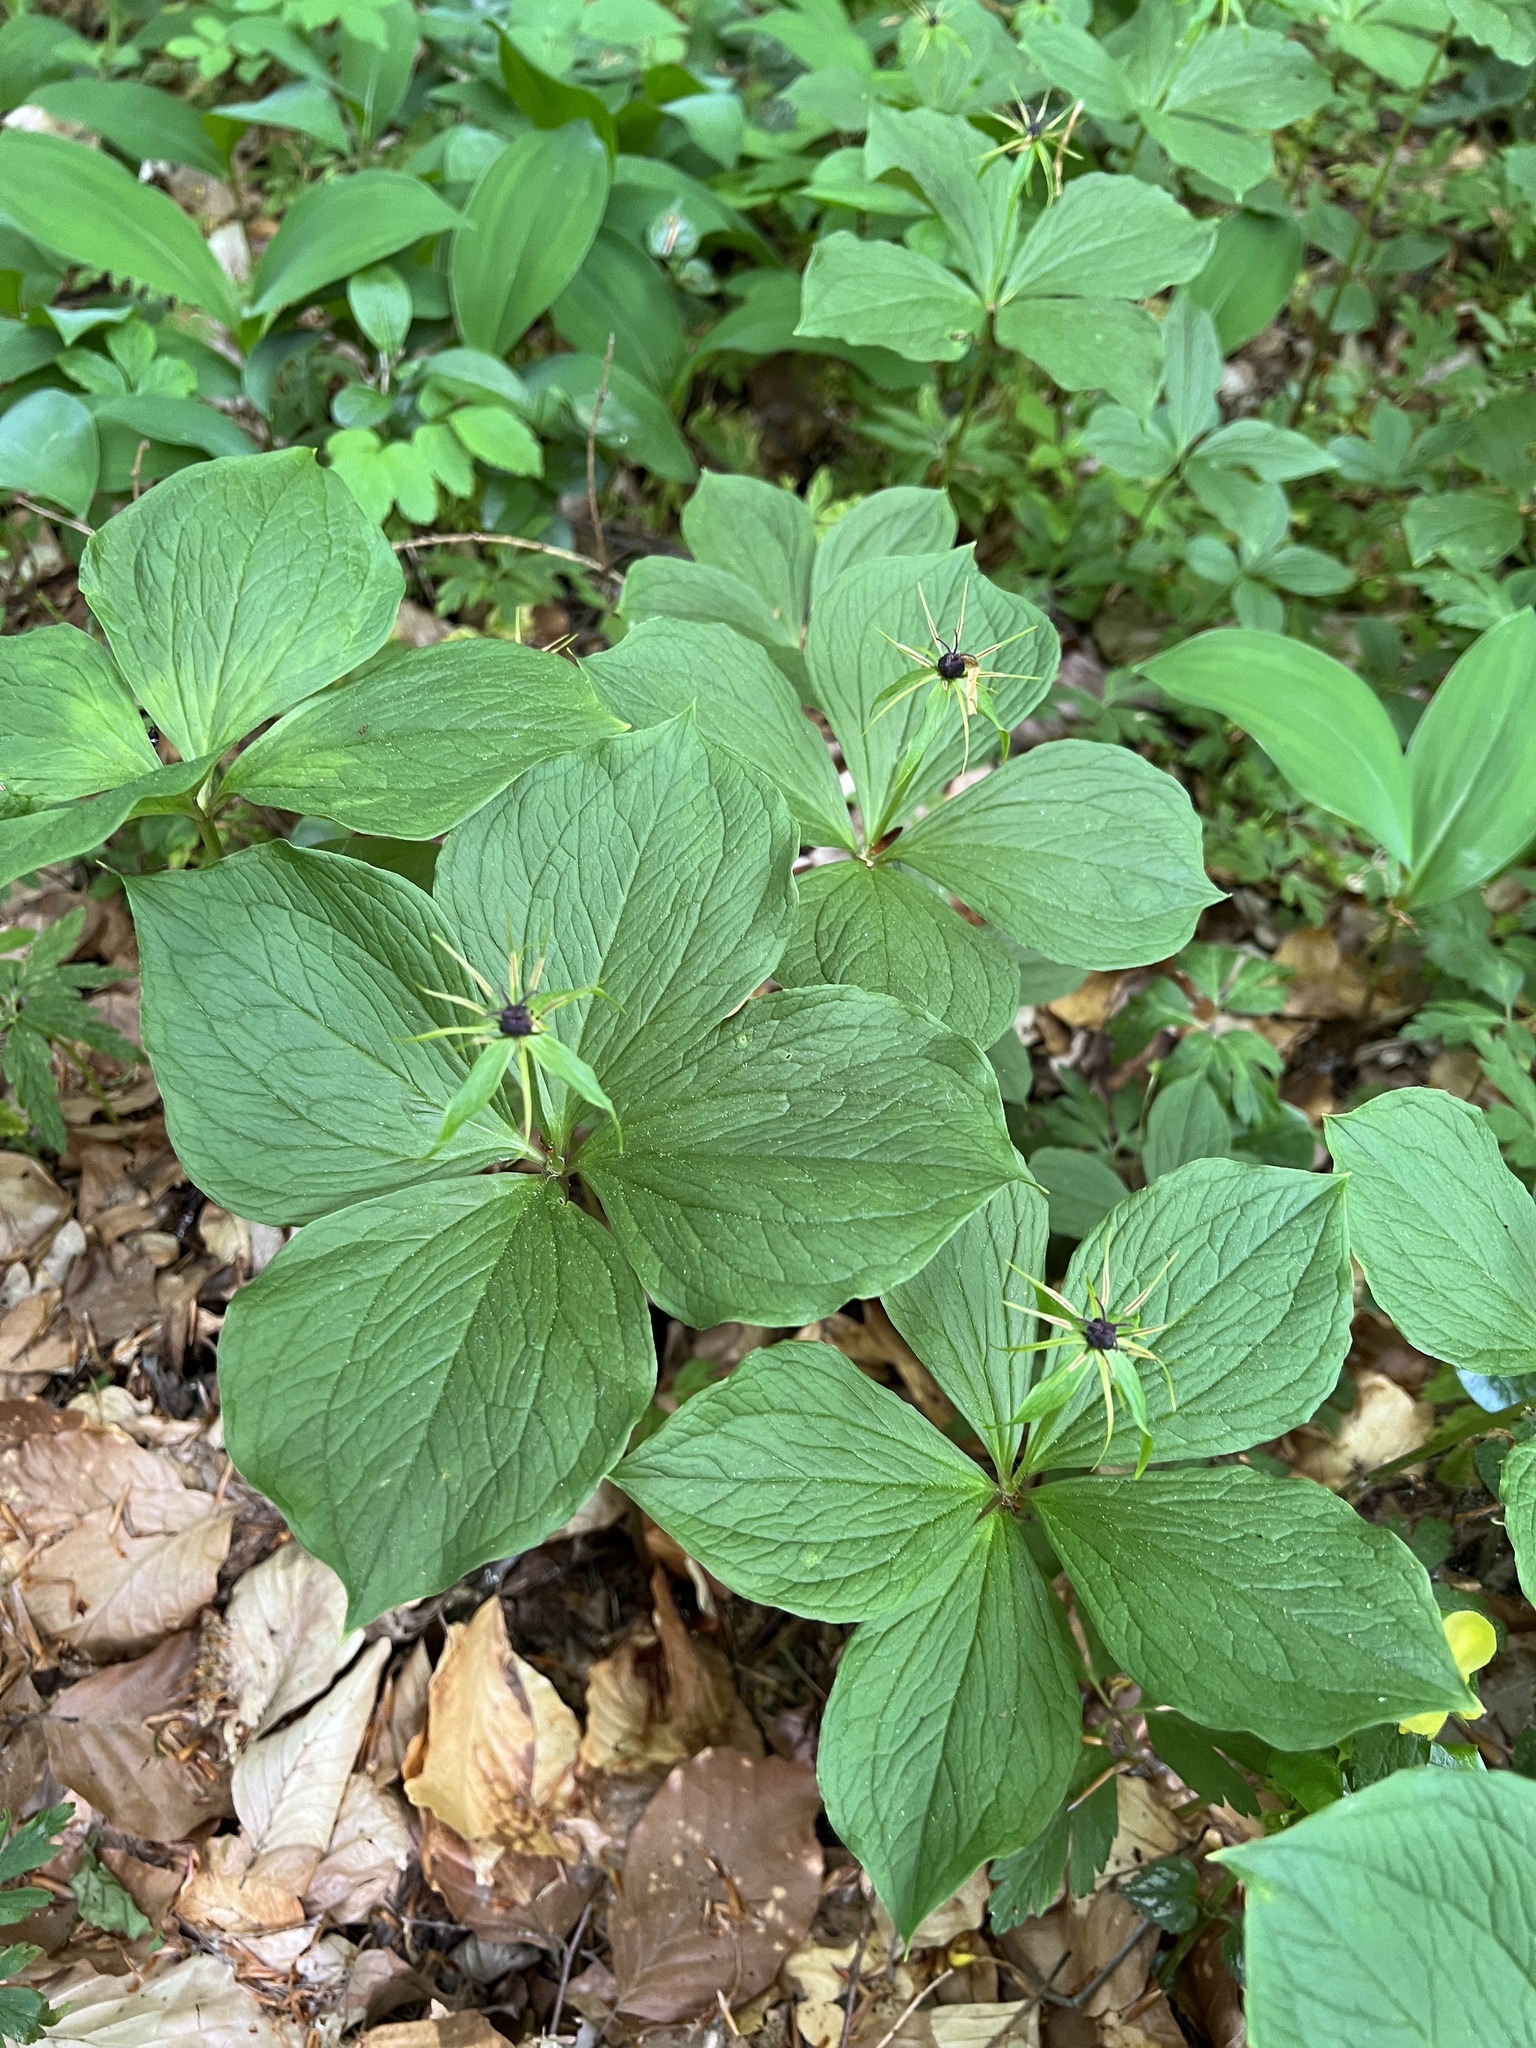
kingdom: Plantae
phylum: Tracheophyta
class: Liliopsida
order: Liliales
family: Melanthiaceae
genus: Paris
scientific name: Paris quadrifolia
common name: Herb-paris
